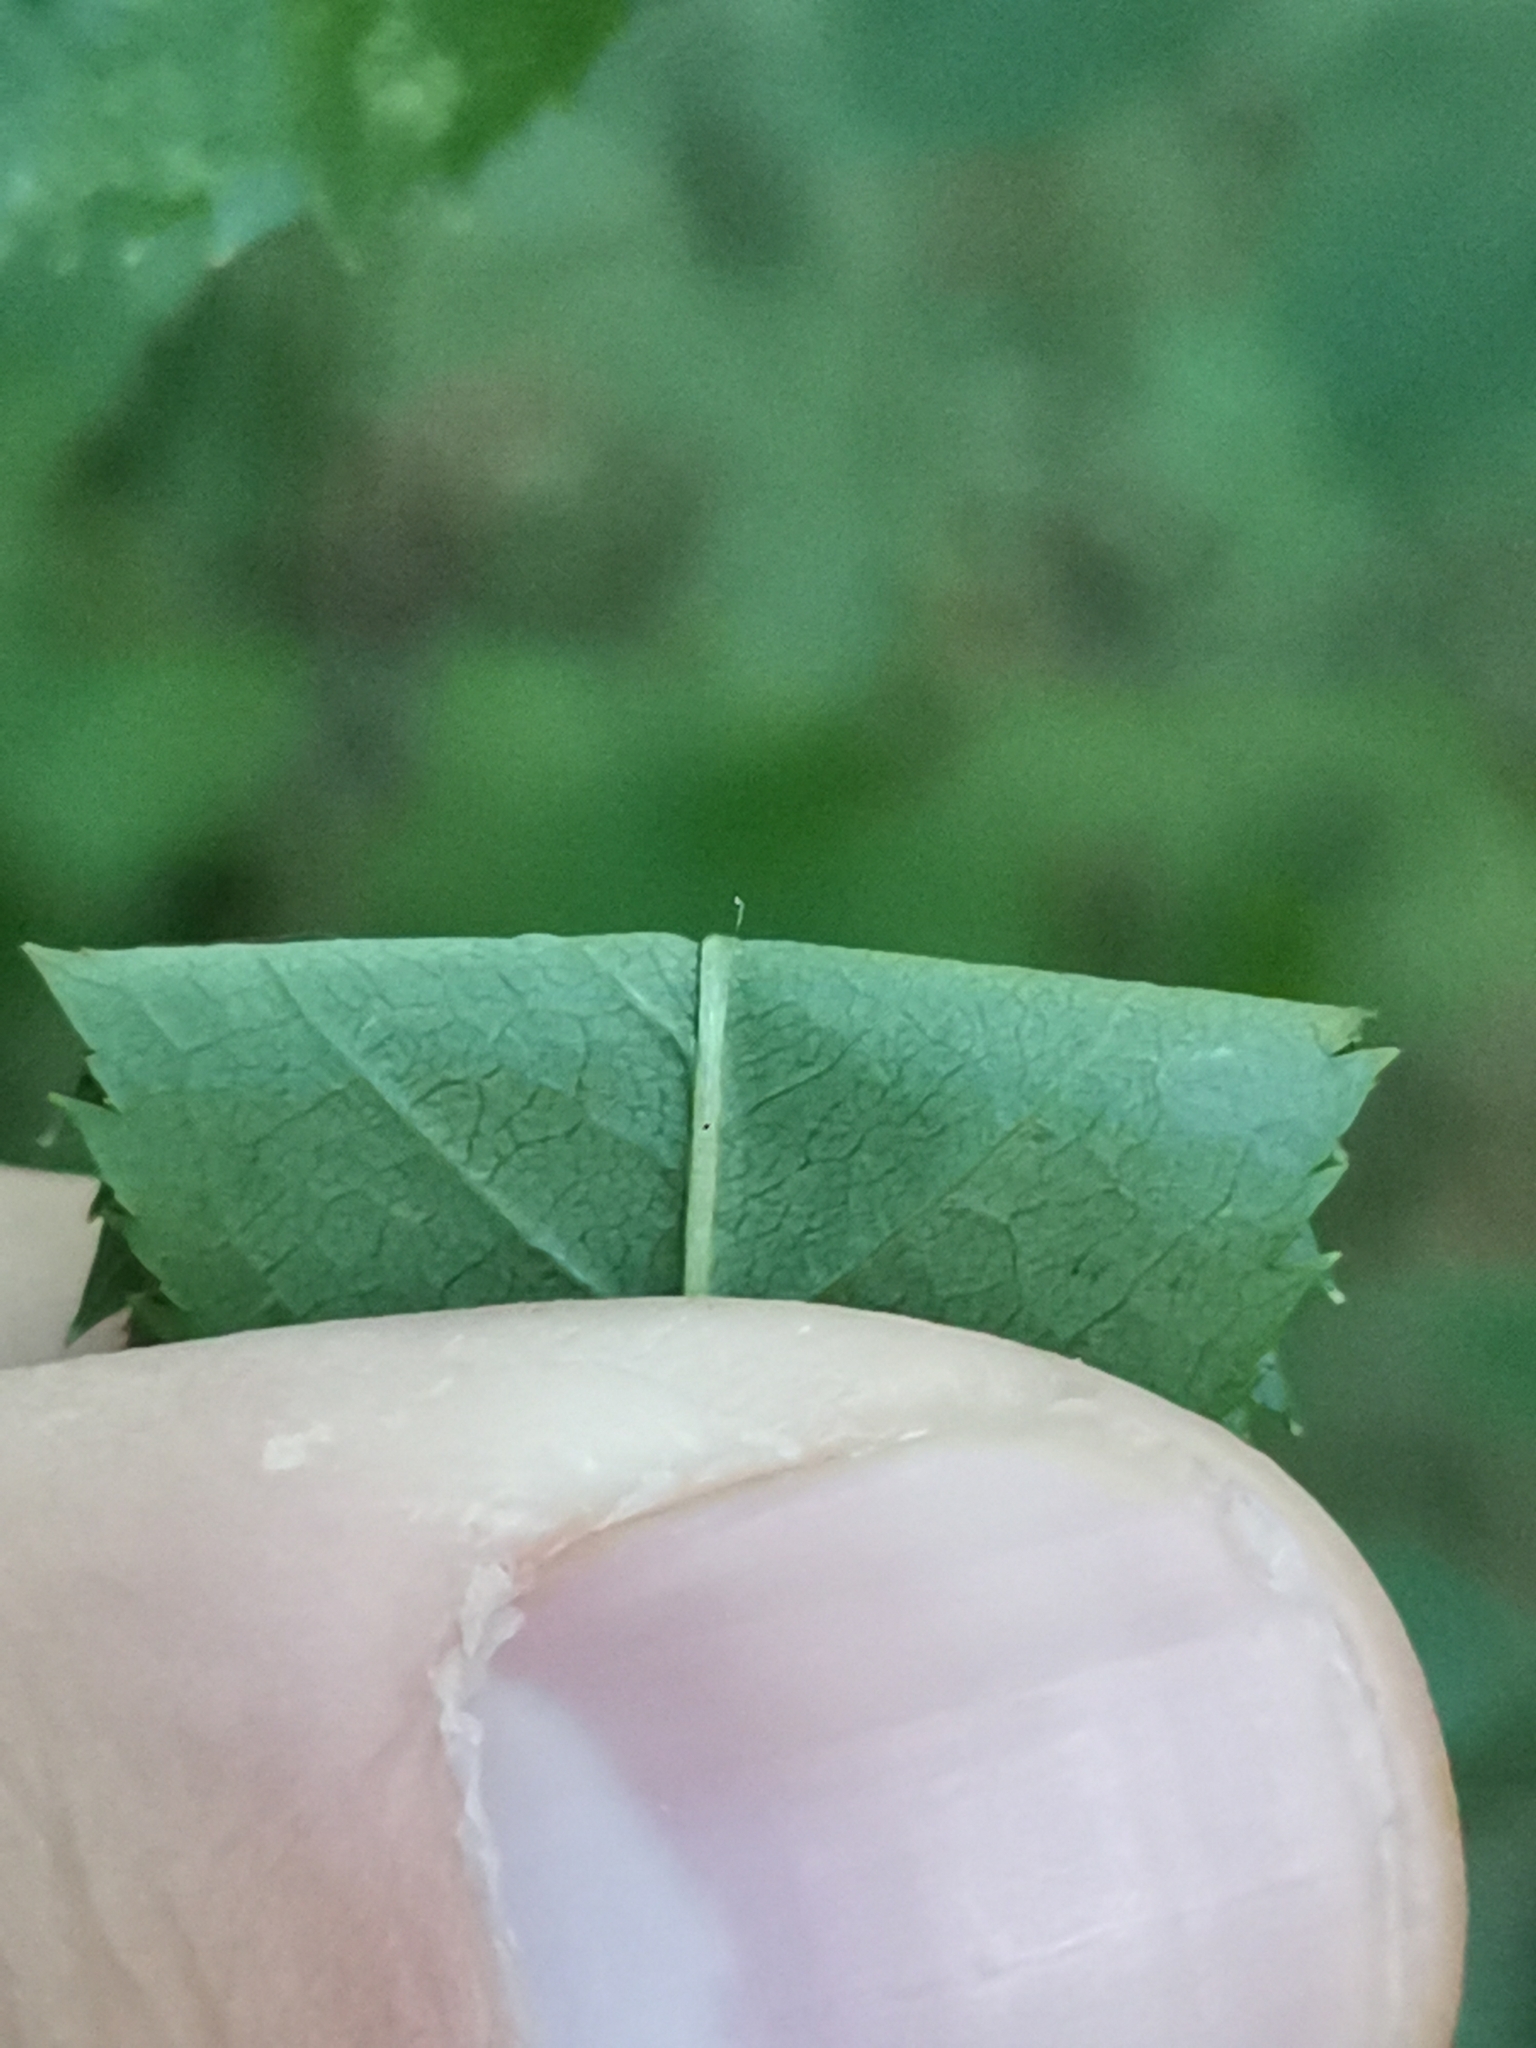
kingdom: Plantae
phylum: Tracheophyta
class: Magnoliopsida
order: Rosales
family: Rosaceae
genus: Rosa
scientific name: Rosa dumalis
